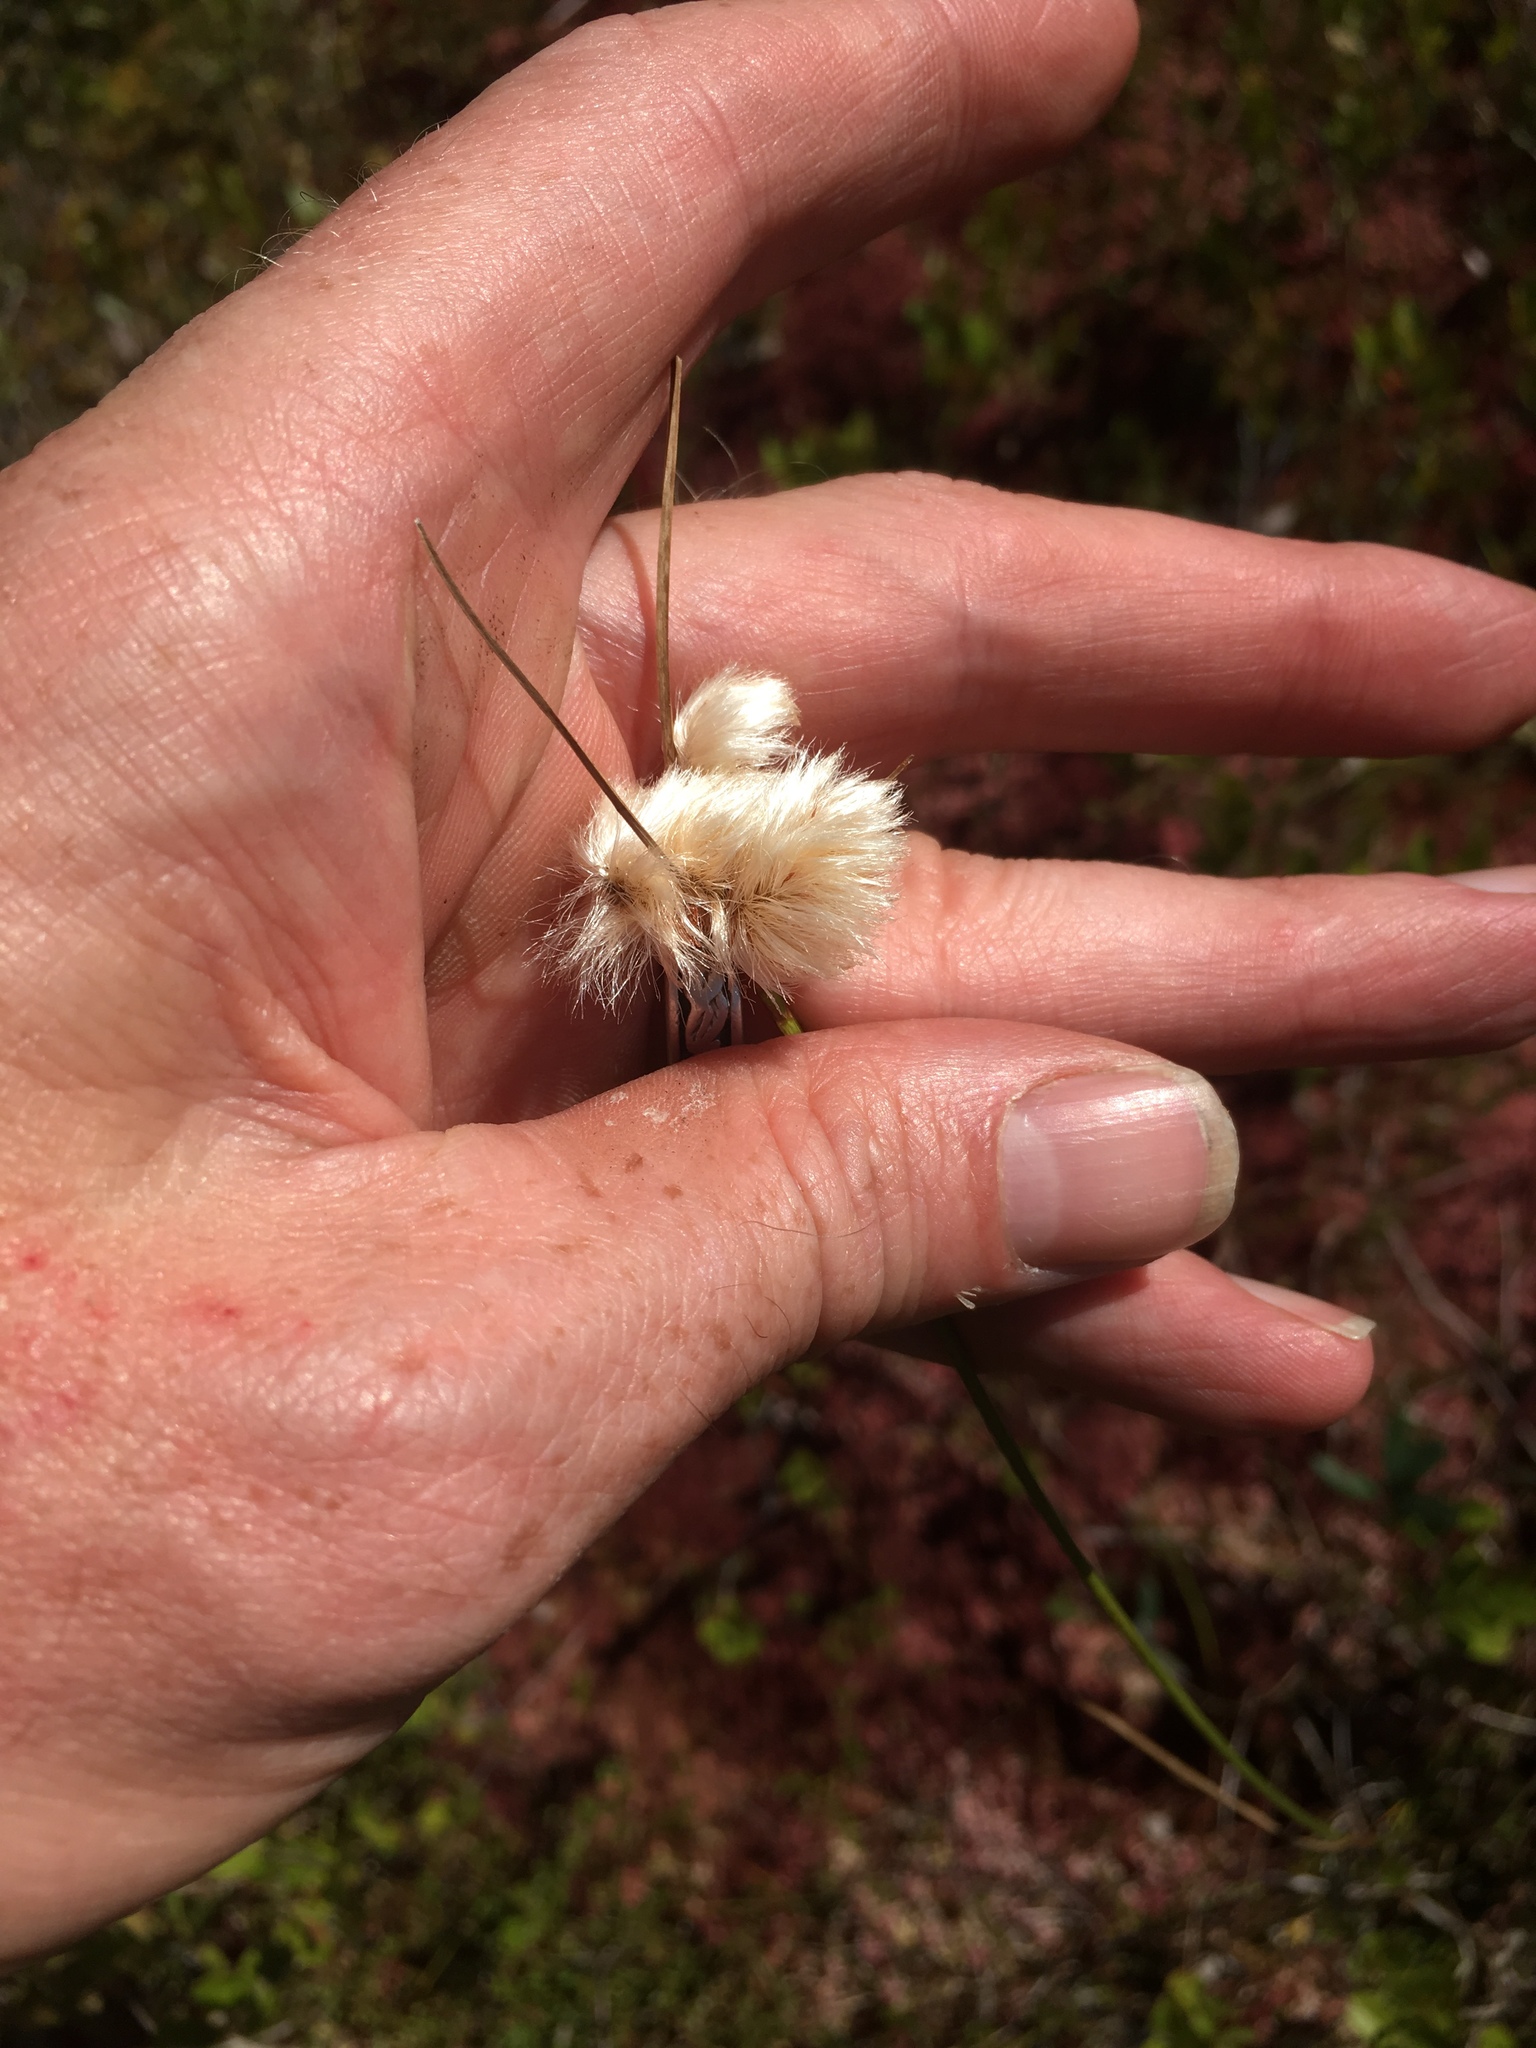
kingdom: Plantae
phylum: Tracheophyta
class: Liliopsida
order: Poales
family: Cyperaceae
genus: Eriophorum
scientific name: Eriophorum virginicum
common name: Tawny cottongrass
